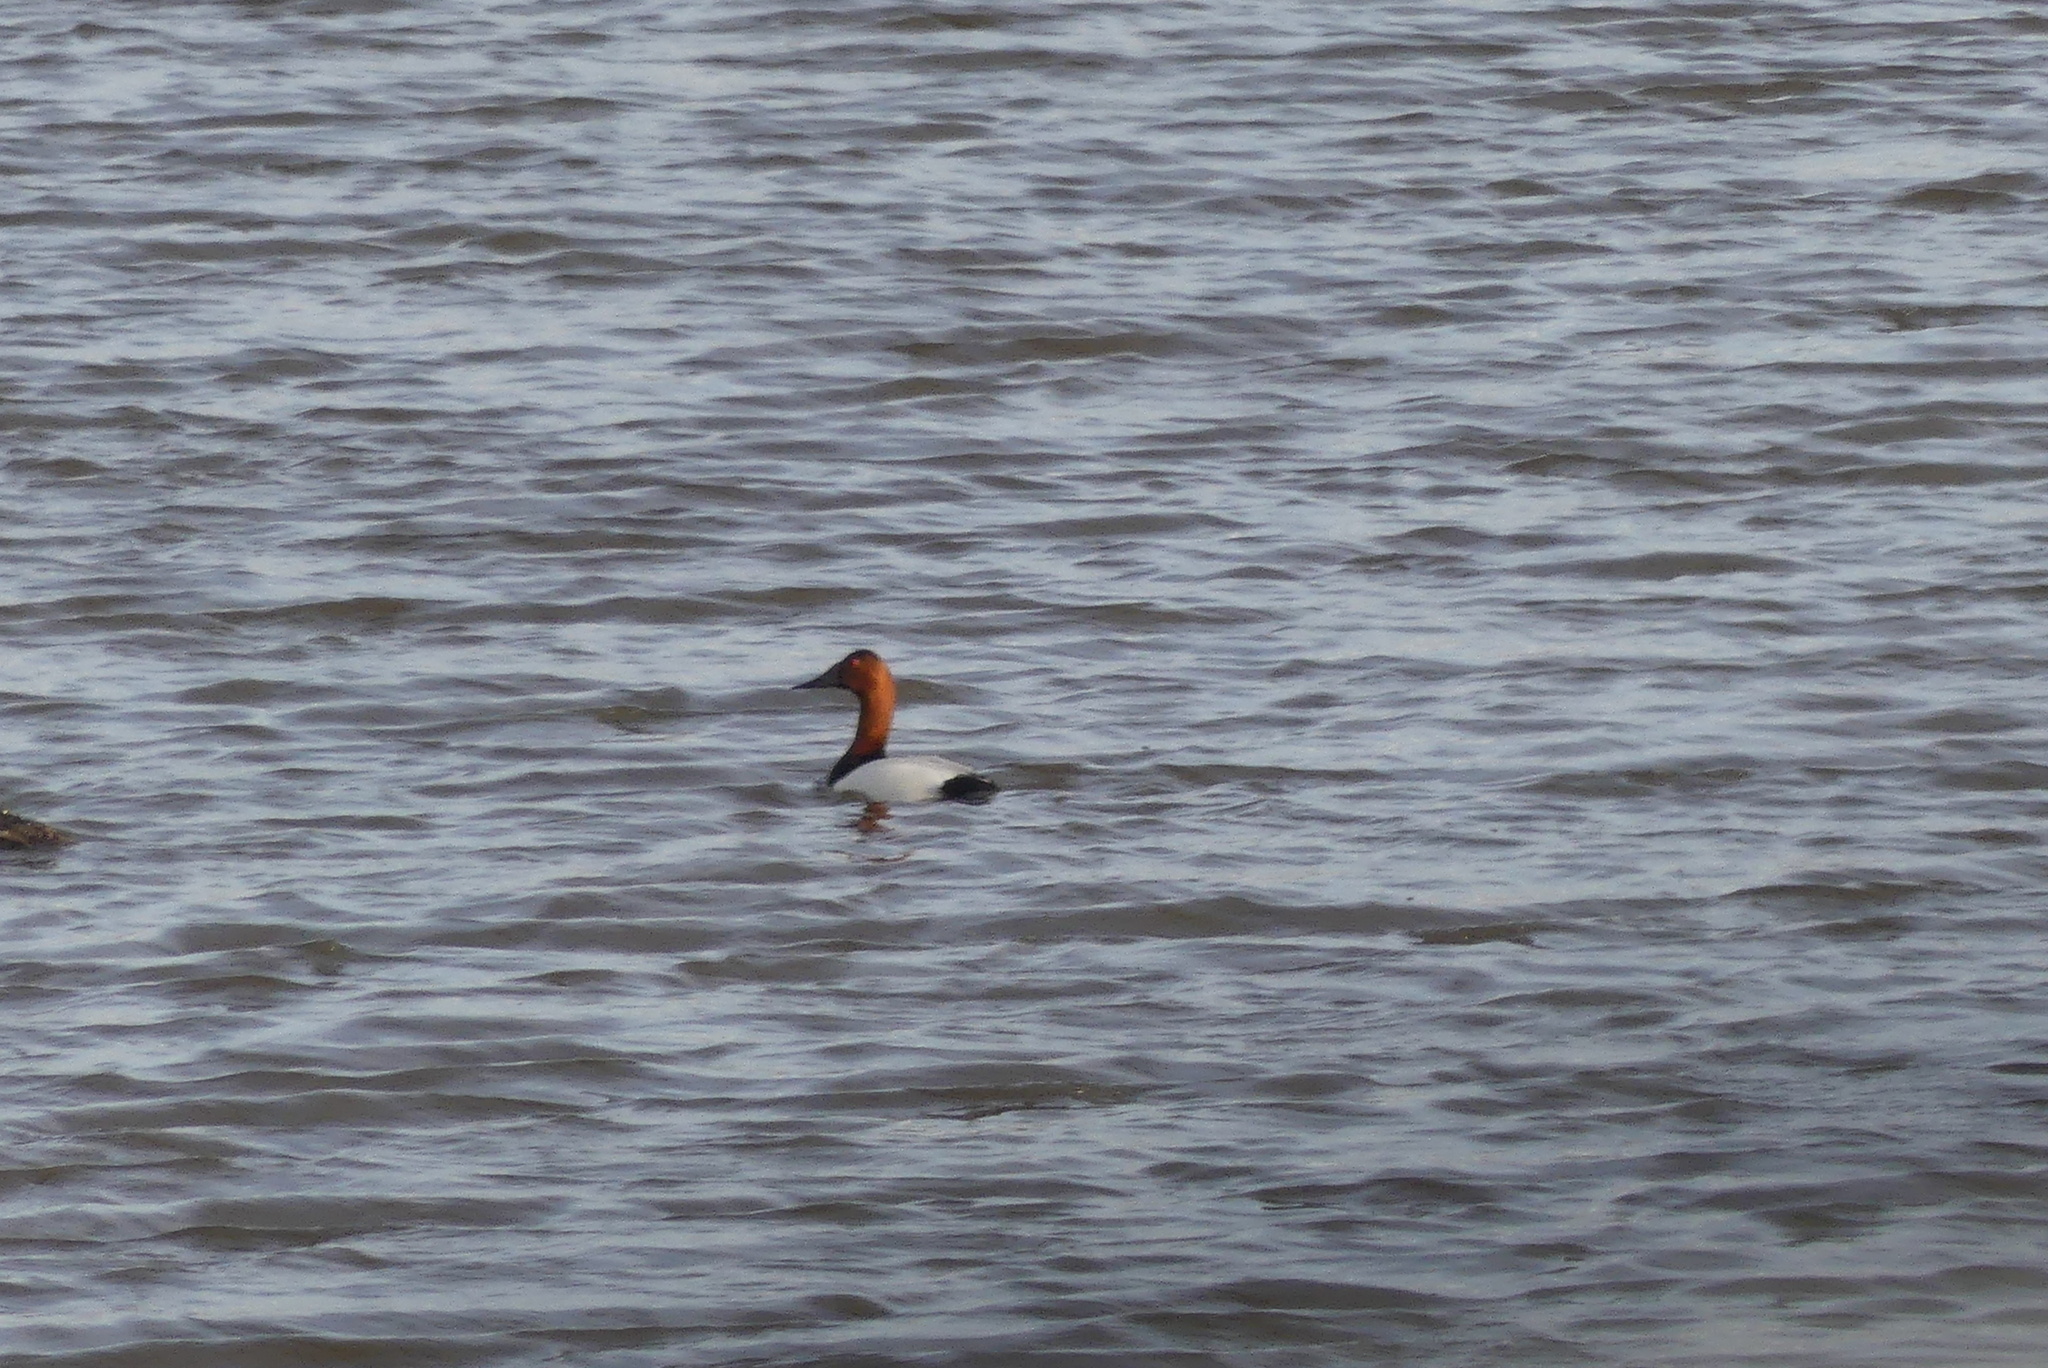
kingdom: Animalia
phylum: Chordata
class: Aves
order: Anseriformes
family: Anatidae
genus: Aythya
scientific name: Aythya valisineria
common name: Canvasback
